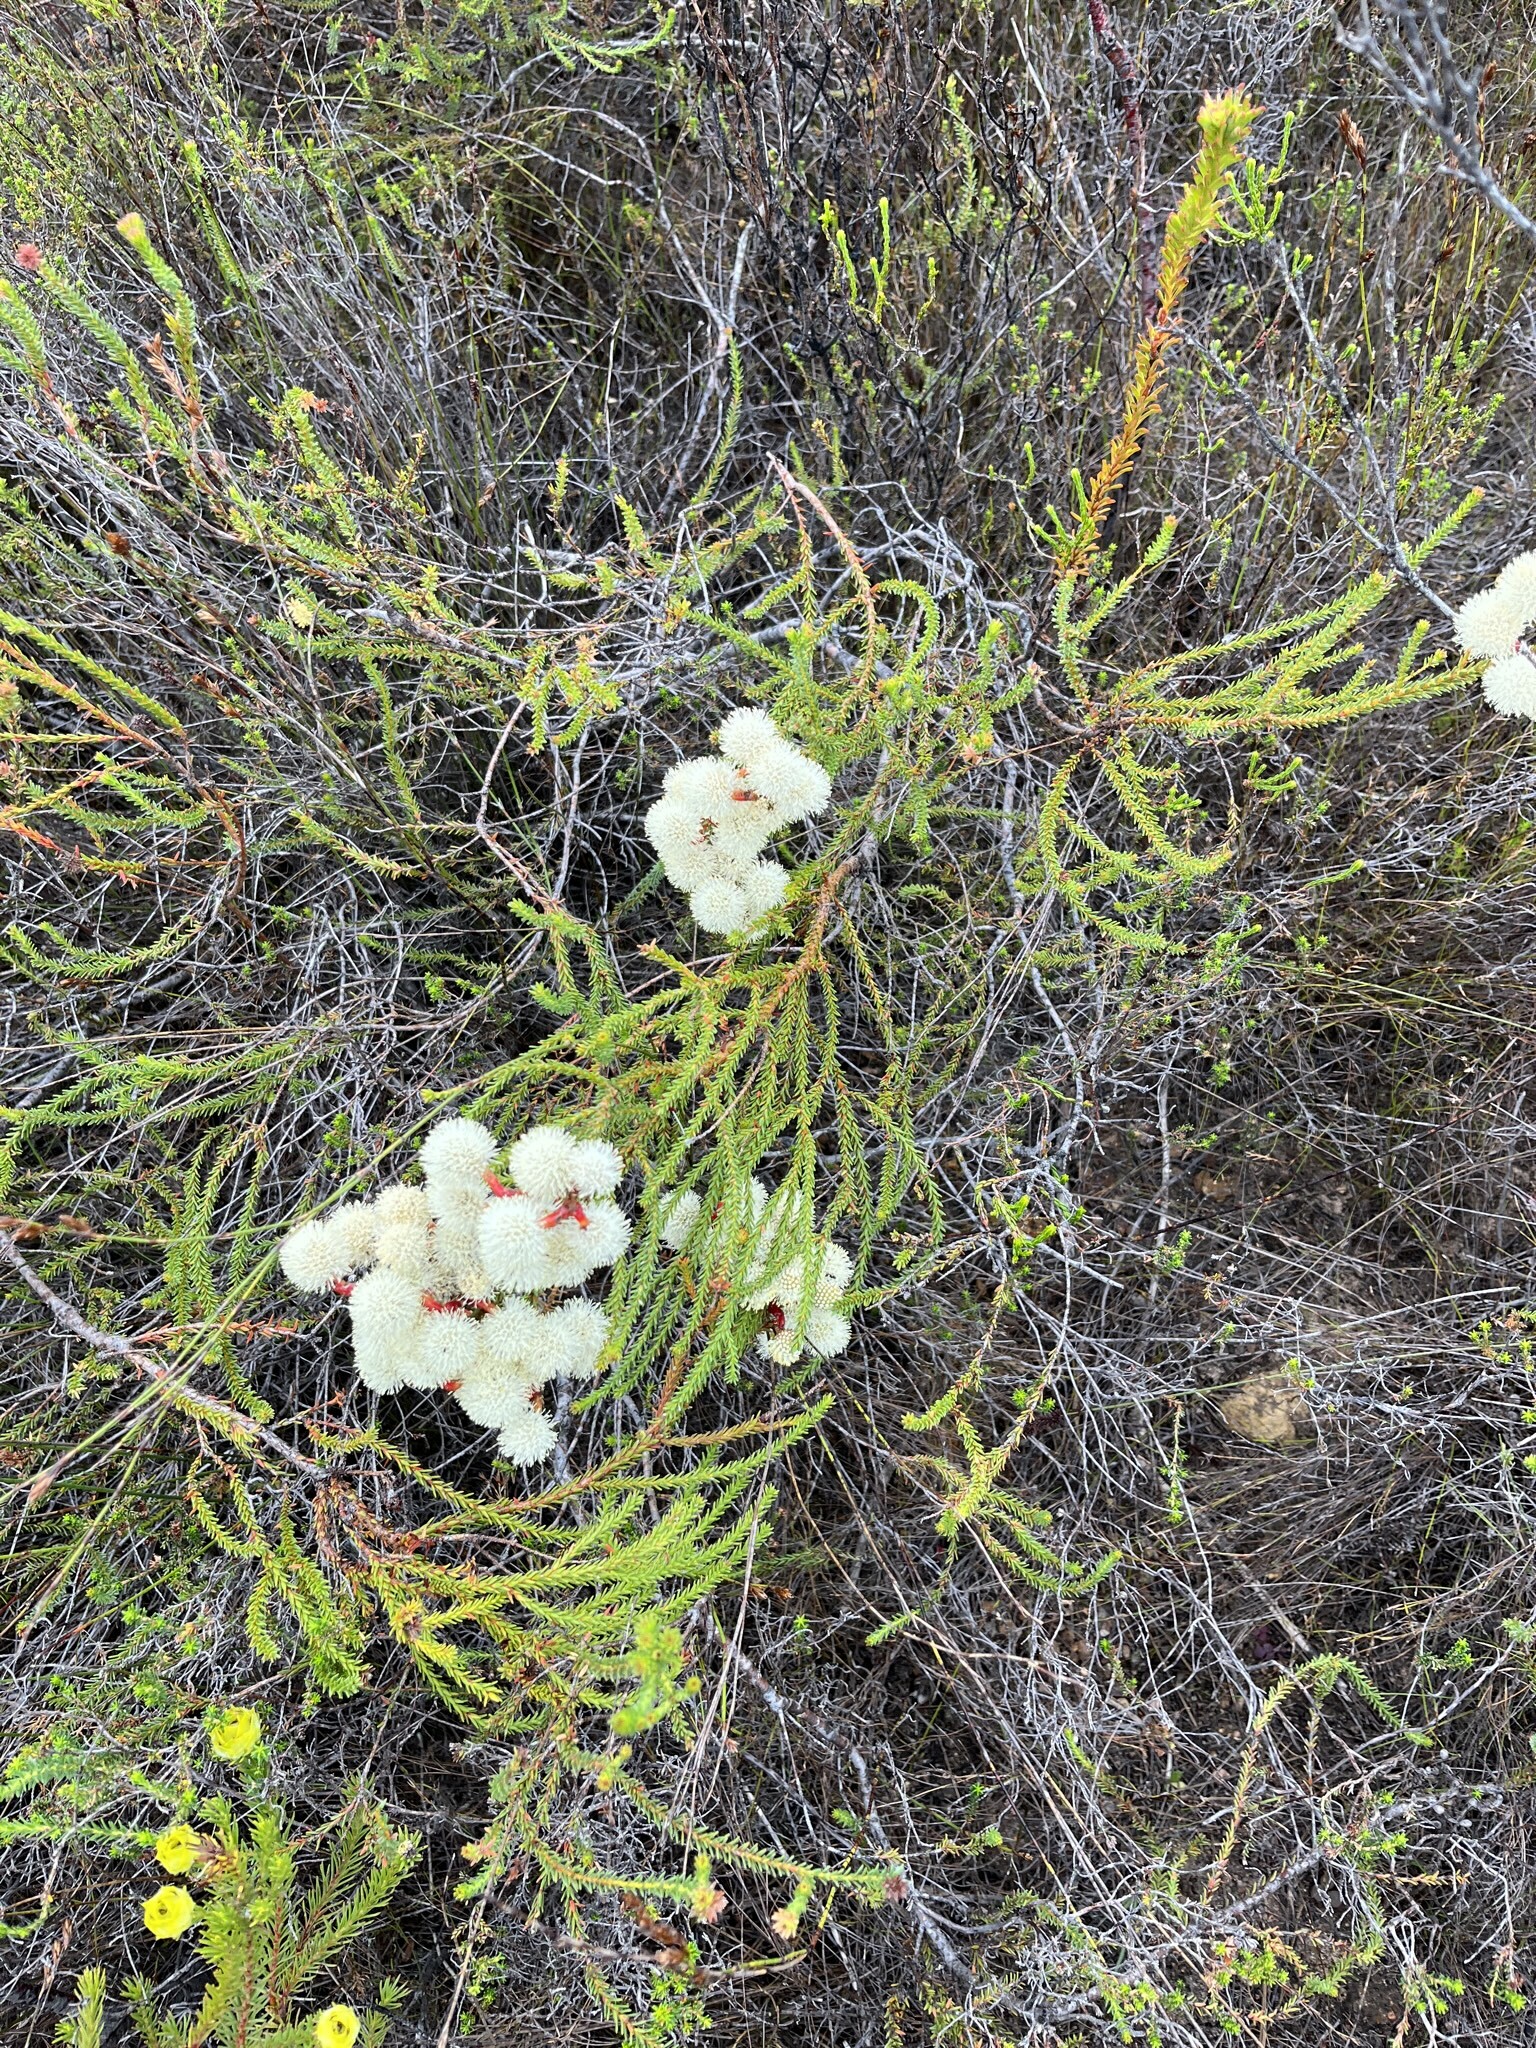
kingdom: Plantae
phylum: Tracheophyta
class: Magnoliopsida
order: Bruniales
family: Bruniaceae
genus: Berzelia
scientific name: Berzelia abrotanoides
